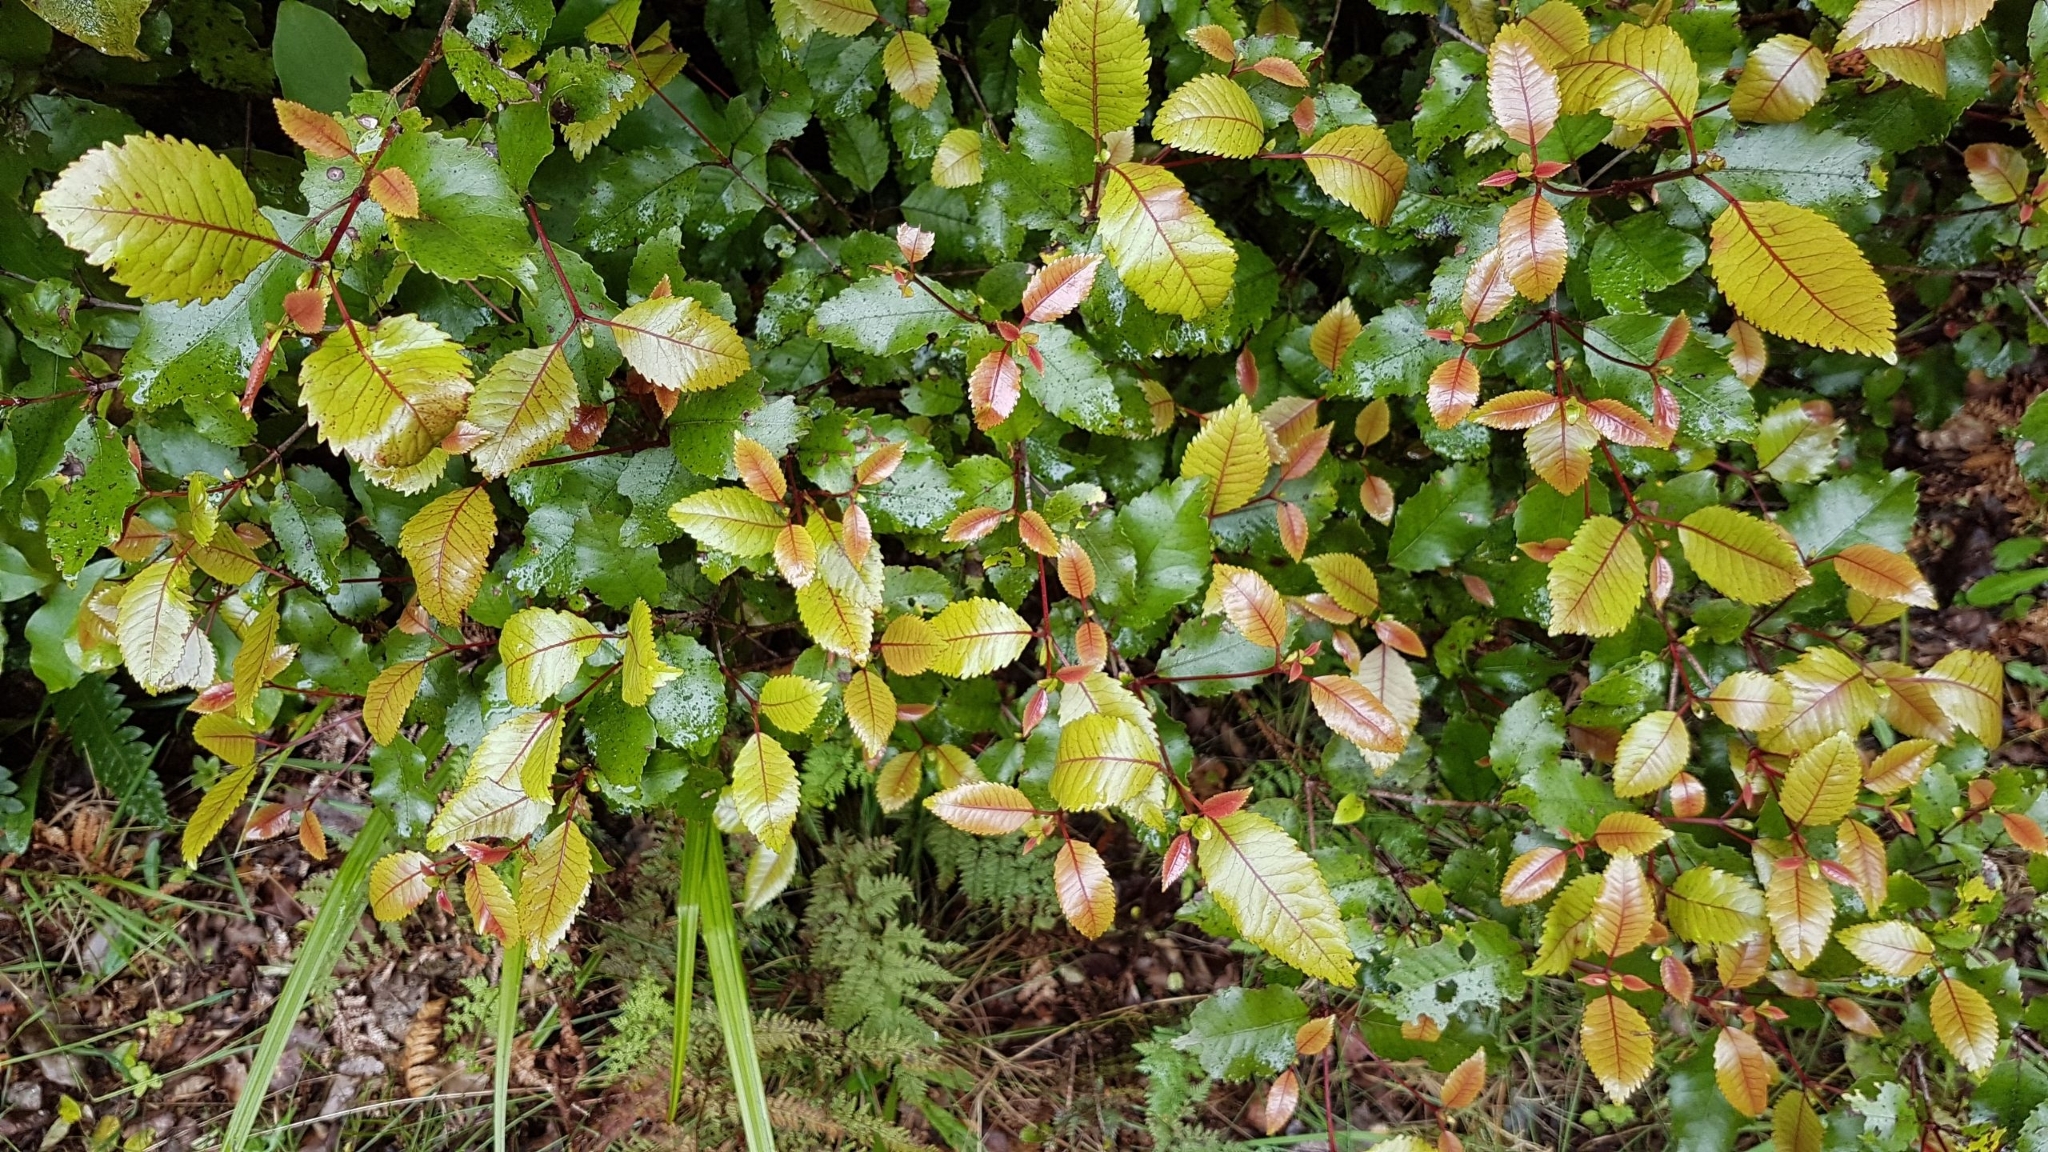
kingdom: Plantae
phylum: Tracheophyta
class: Magnoliopsida
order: Oxalidales
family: Cunoniaceae
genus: Pterophylla
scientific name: Pterophylla racemosa
